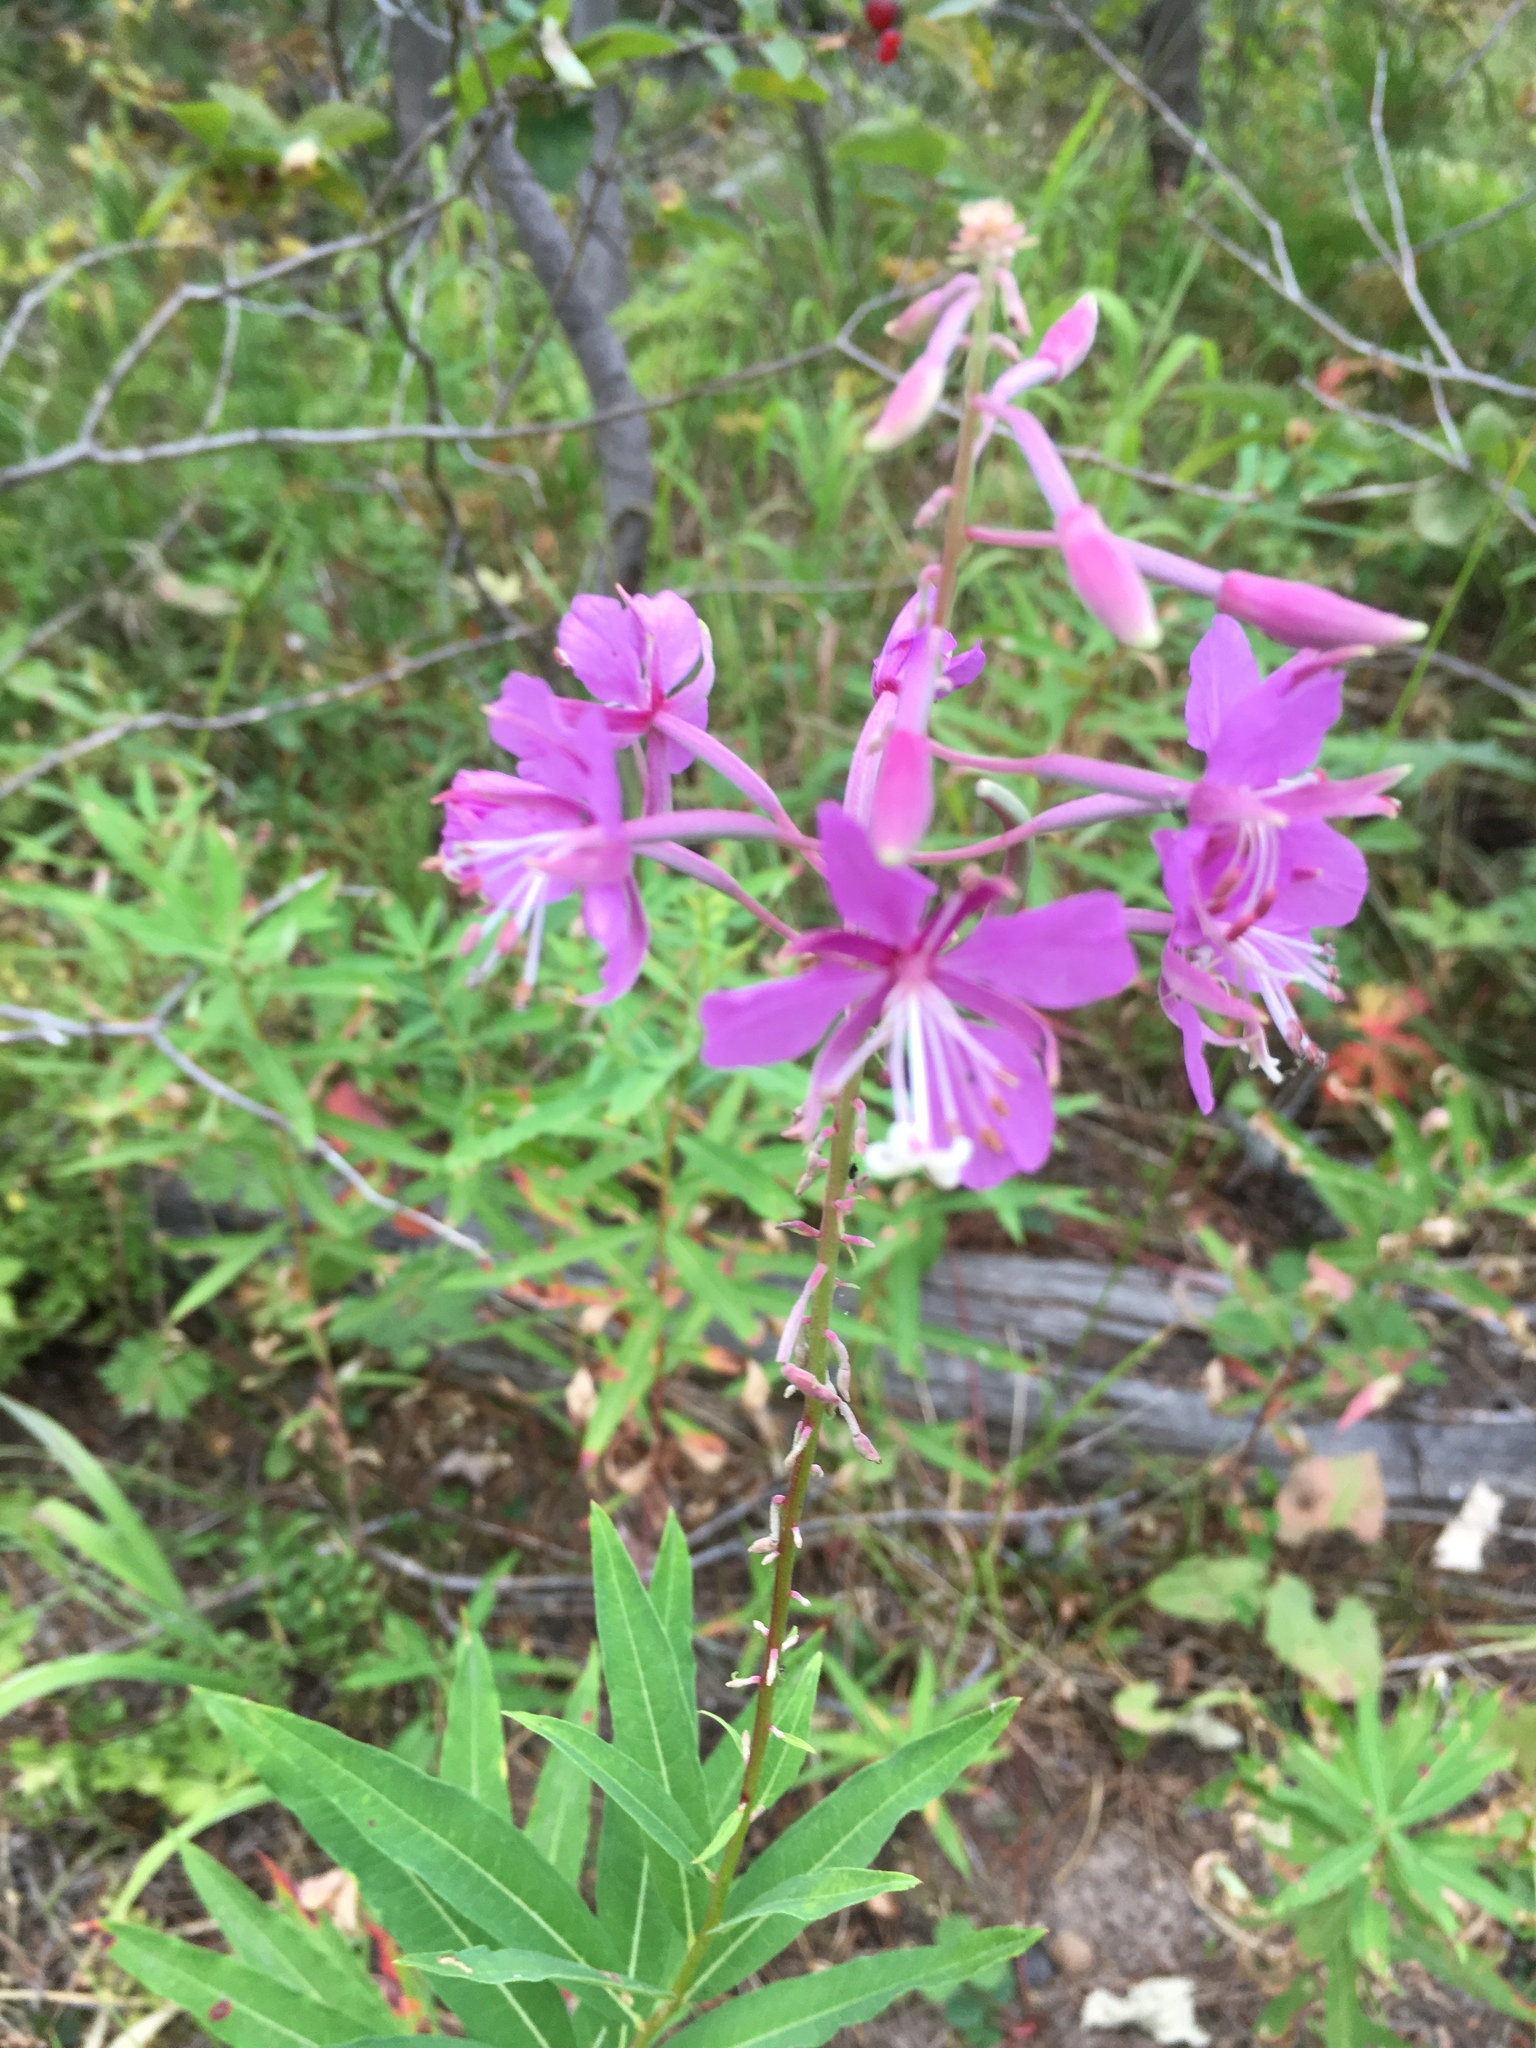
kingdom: Plantae
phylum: Tracheophyta
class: Magnoliopsida
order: Myrtales
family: Onagraceae
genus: Chamaenerion
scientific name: Chamaenerion angustifolium
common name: Fireweed
